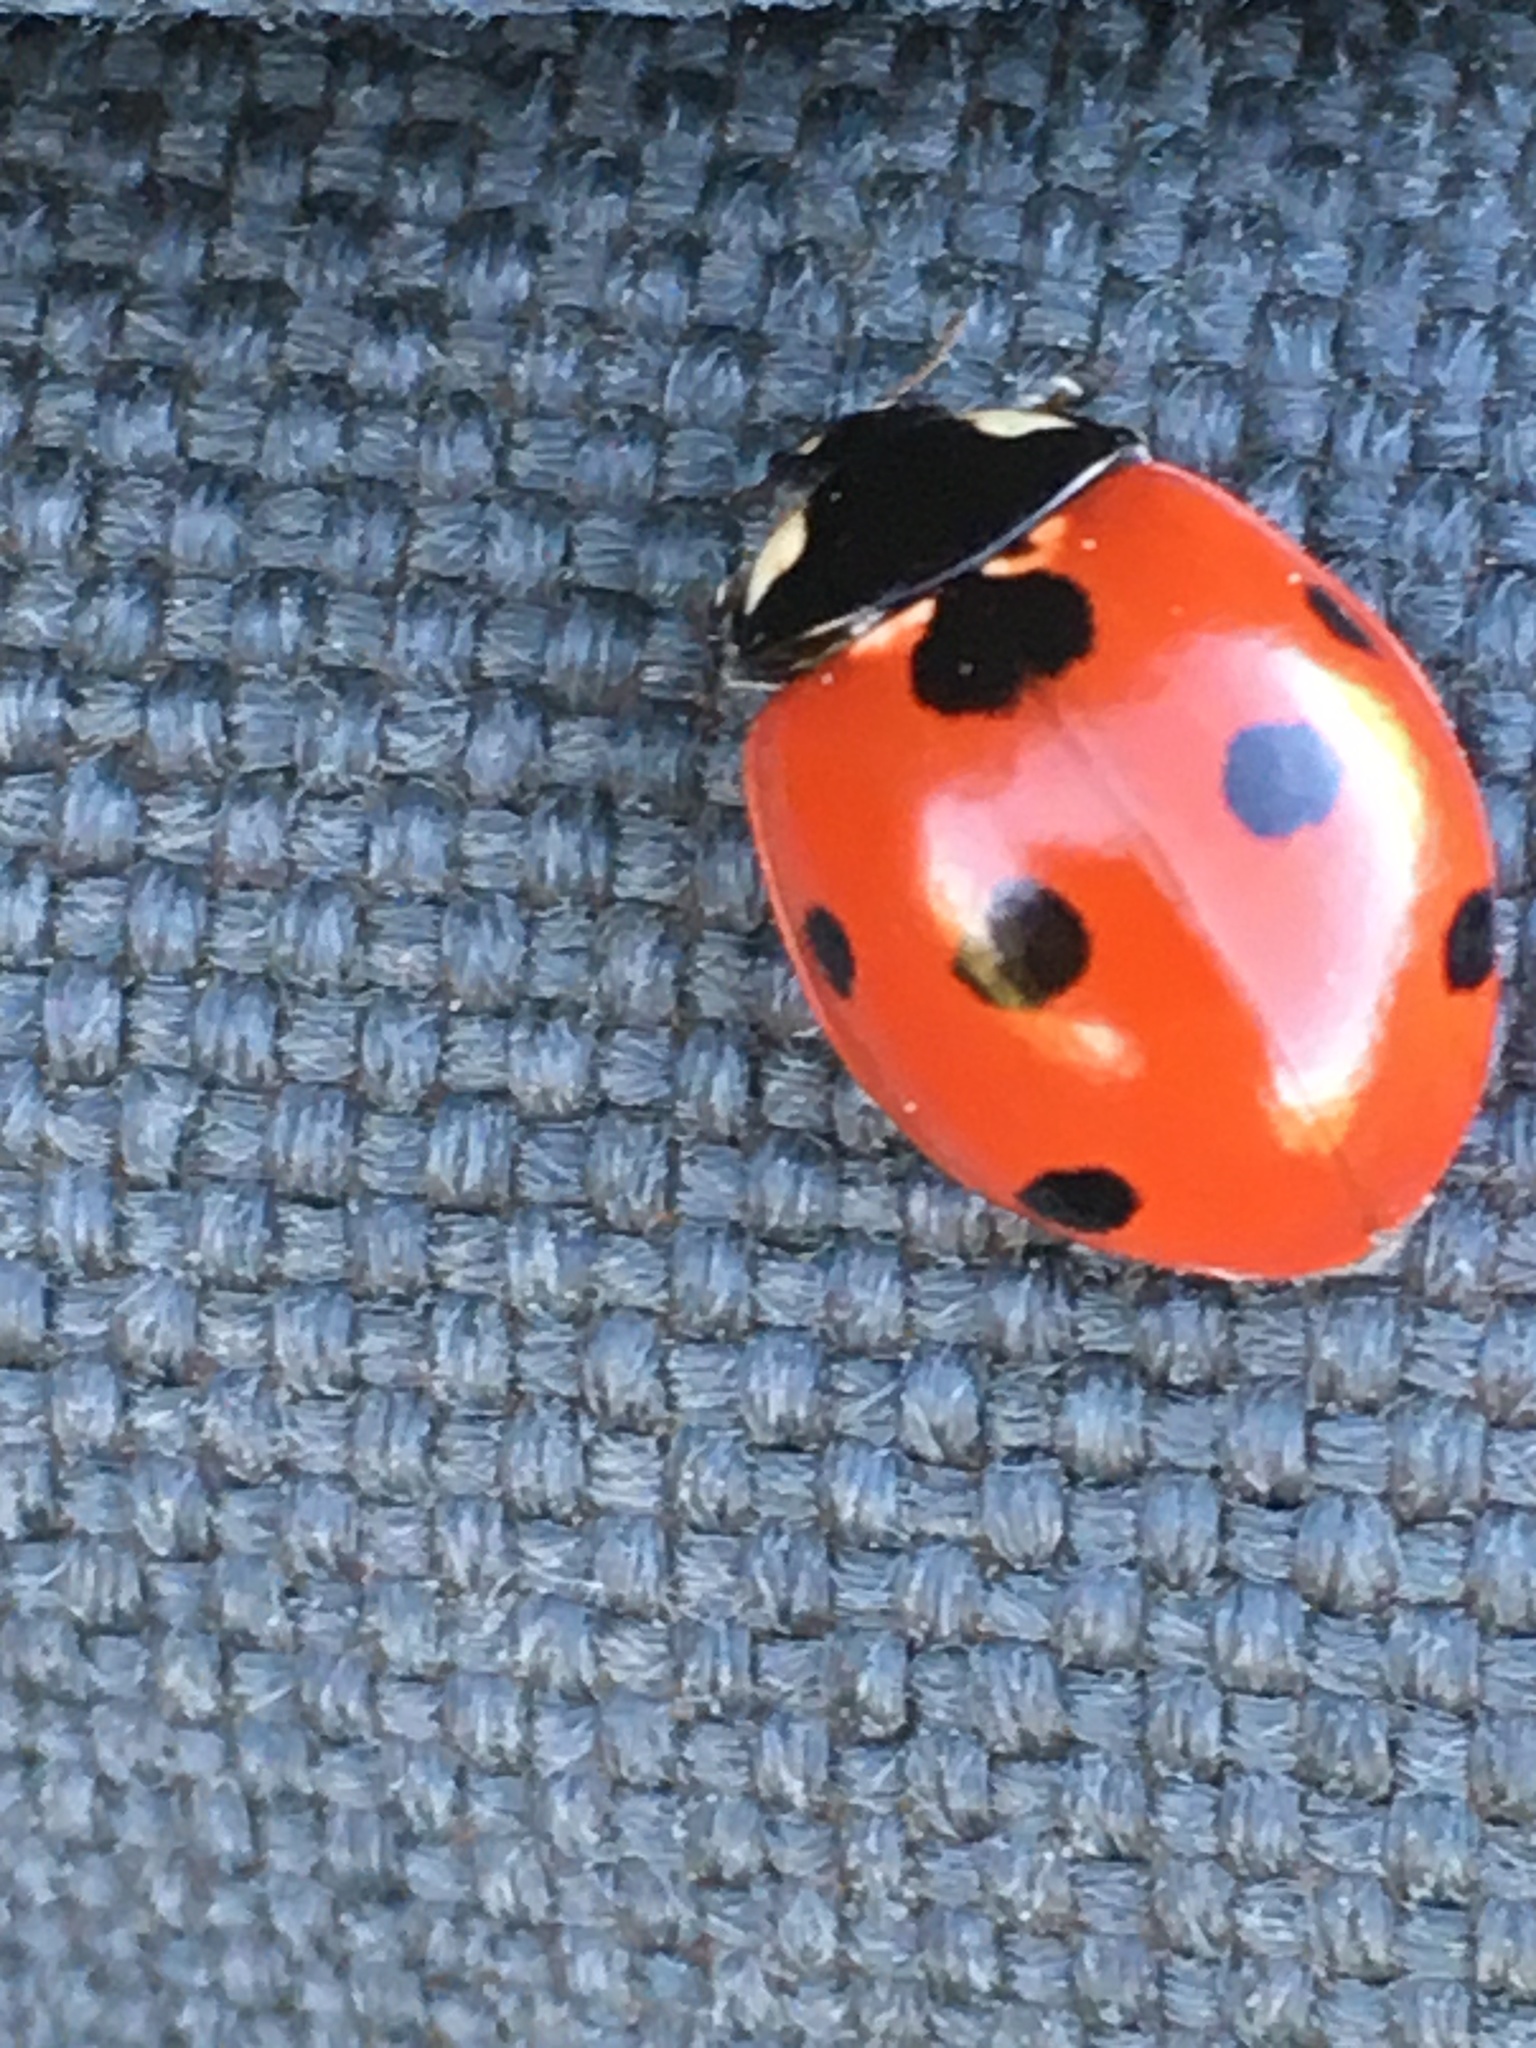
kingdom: Animalia
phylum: Arthropoda
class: Insecta
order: Coleoptera
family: Coccinellidae
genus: Coccinella
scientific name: Coccinella septempunctata
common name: Sevenspotted lady beetle
